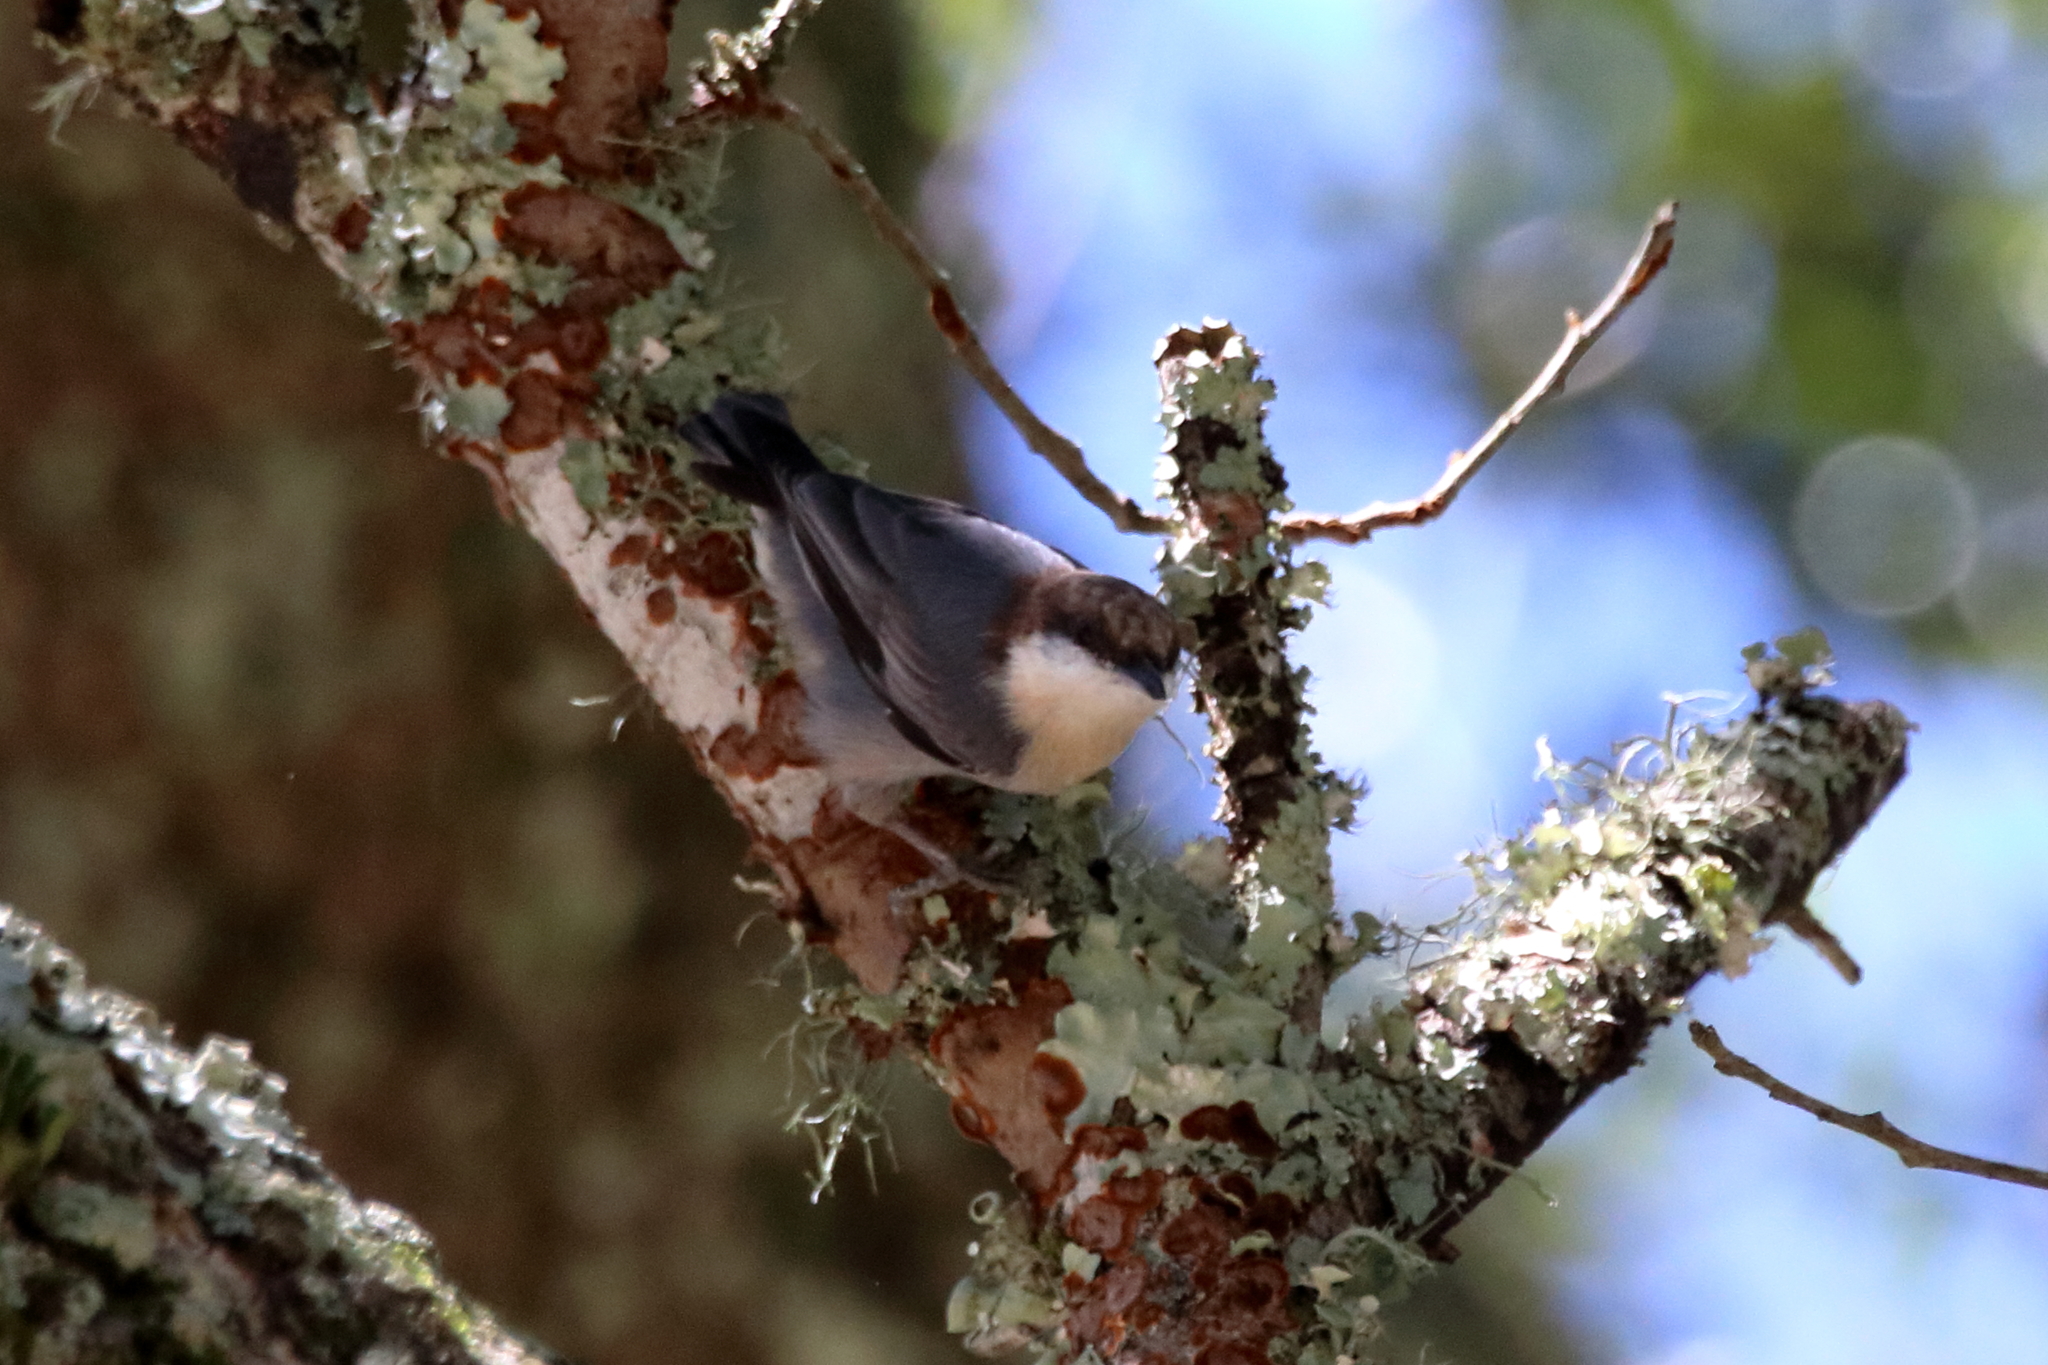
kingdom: Animalia
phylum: Chordata
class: Aves
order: Passeriformes
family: Sittidae
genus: Sitta
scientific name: Sitta pusilla
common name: Brown-headed nuthatch
